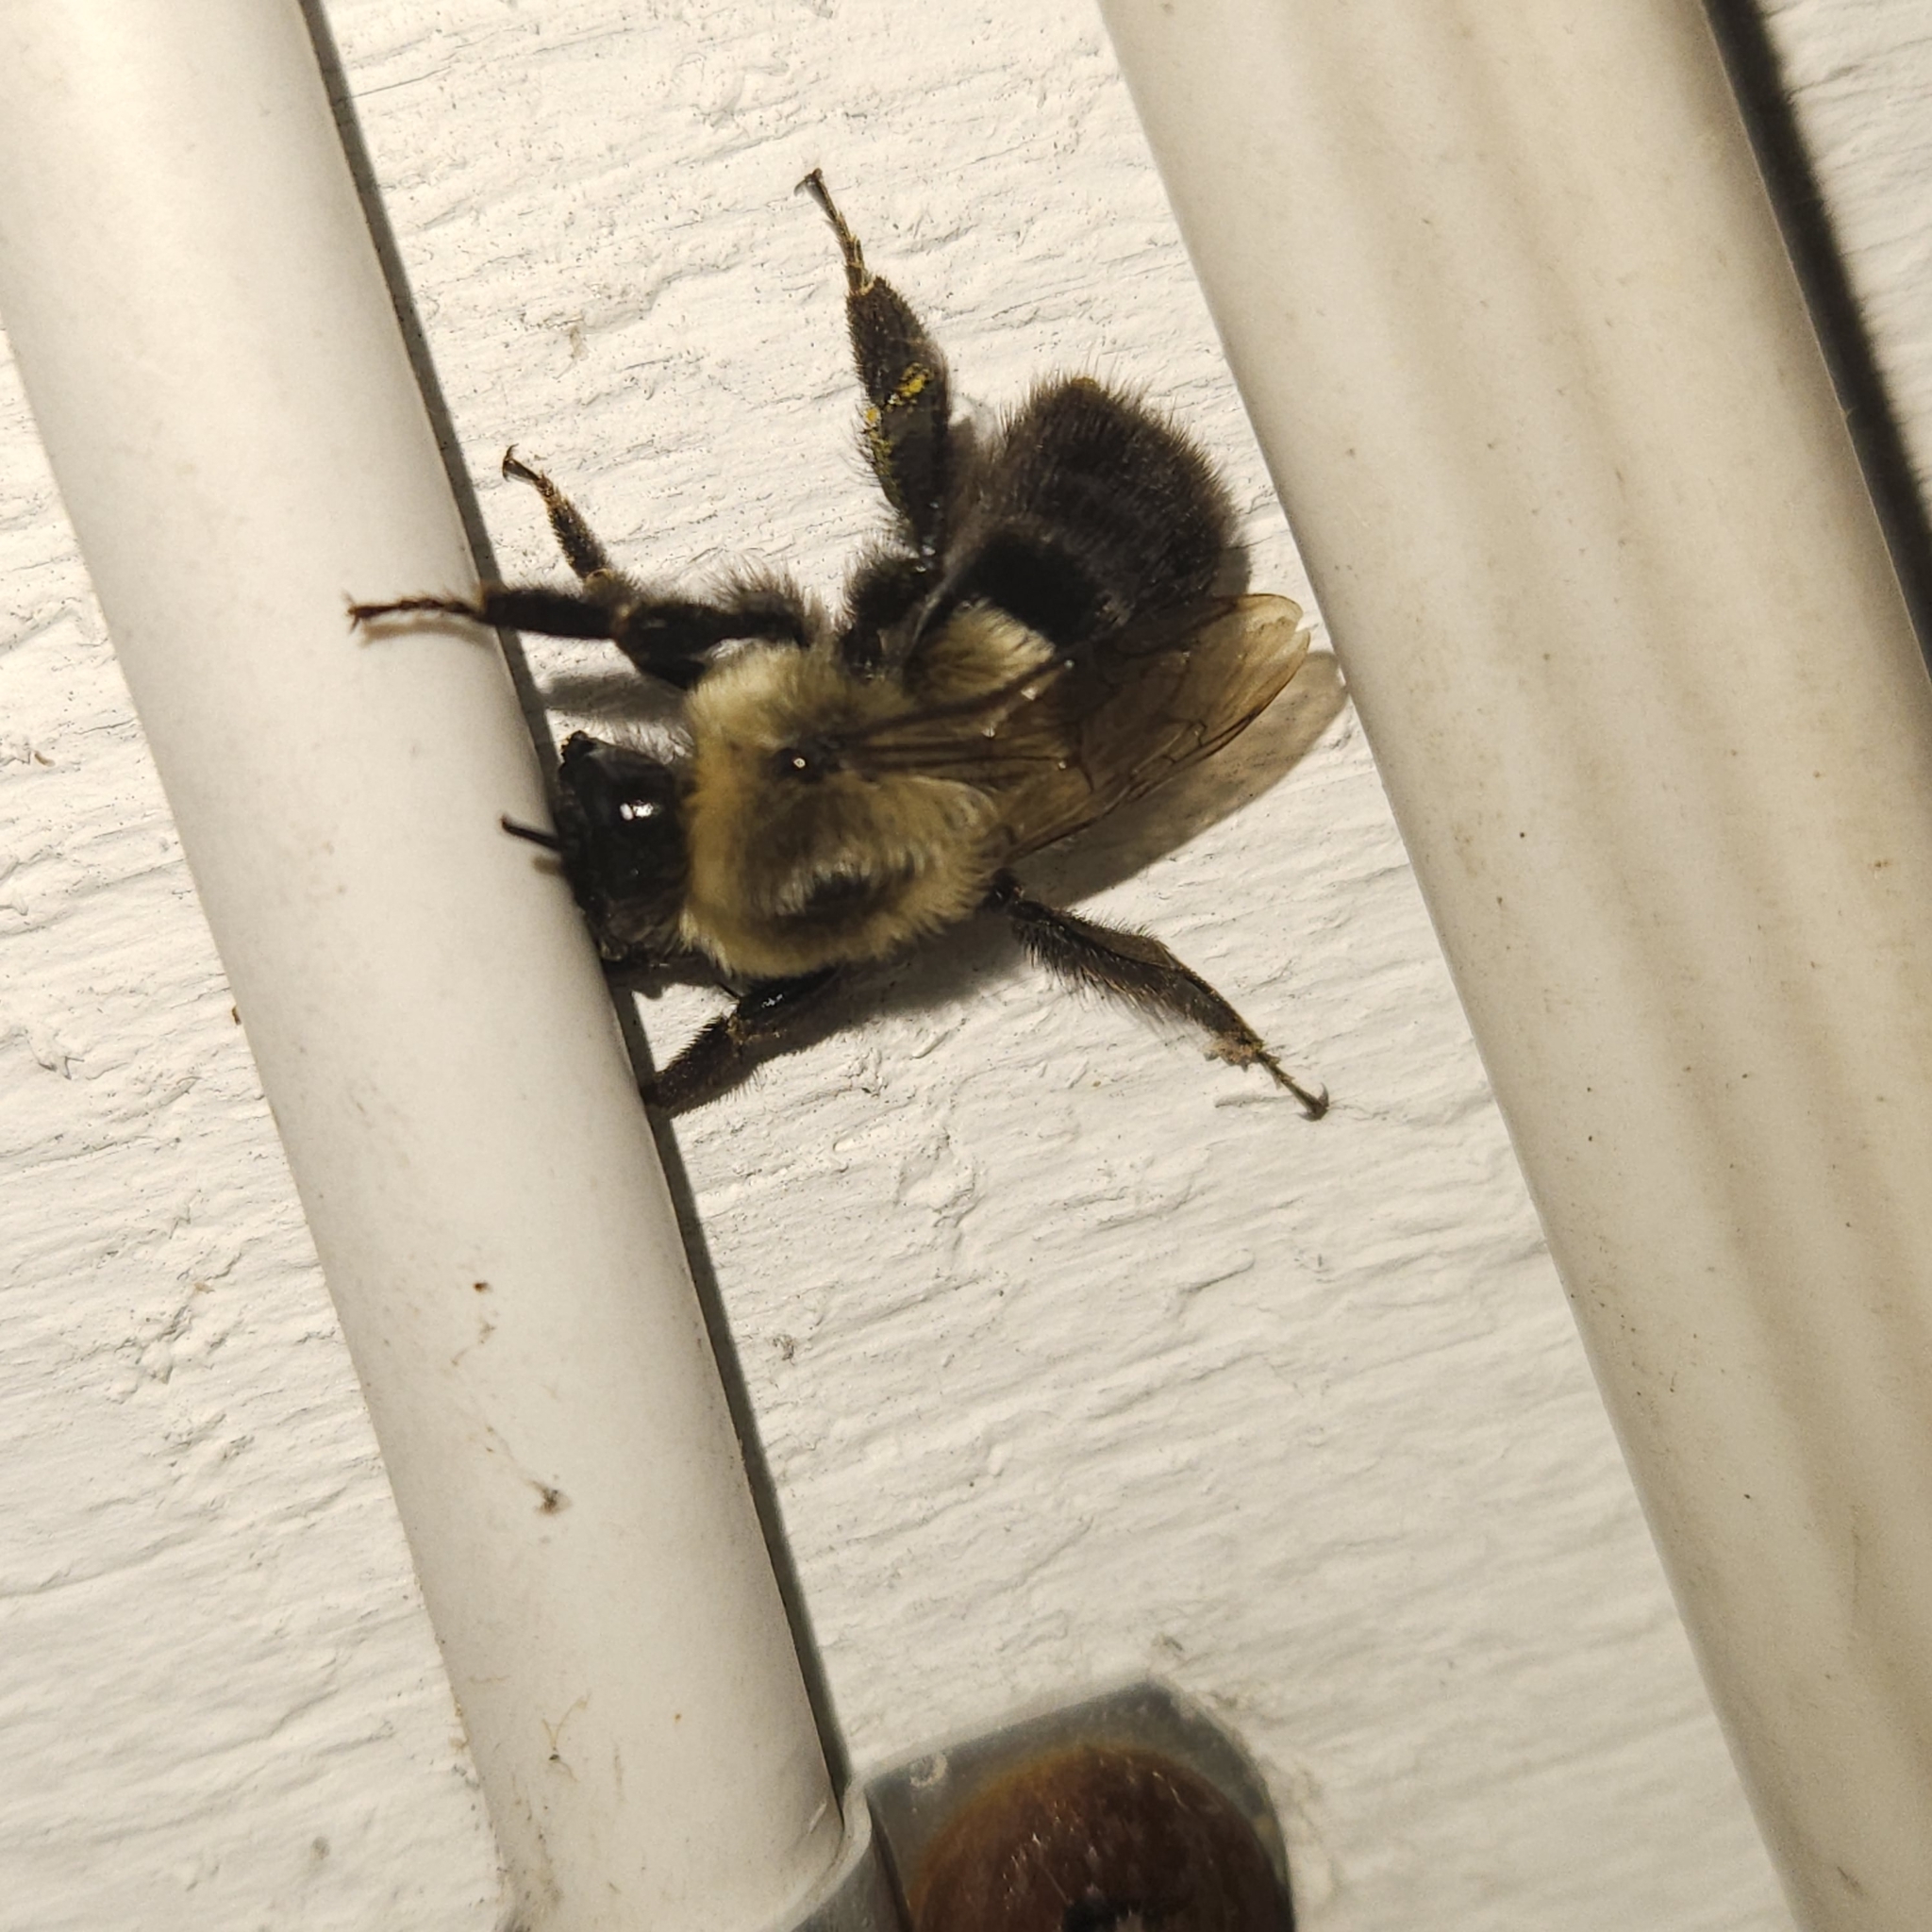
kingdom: Animalia
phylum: Arthropoda
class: Insecta
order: Hymenoptera
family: Apidae
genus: Bombus
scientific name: Bombus impatiens
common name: Common eastern bumble bee
